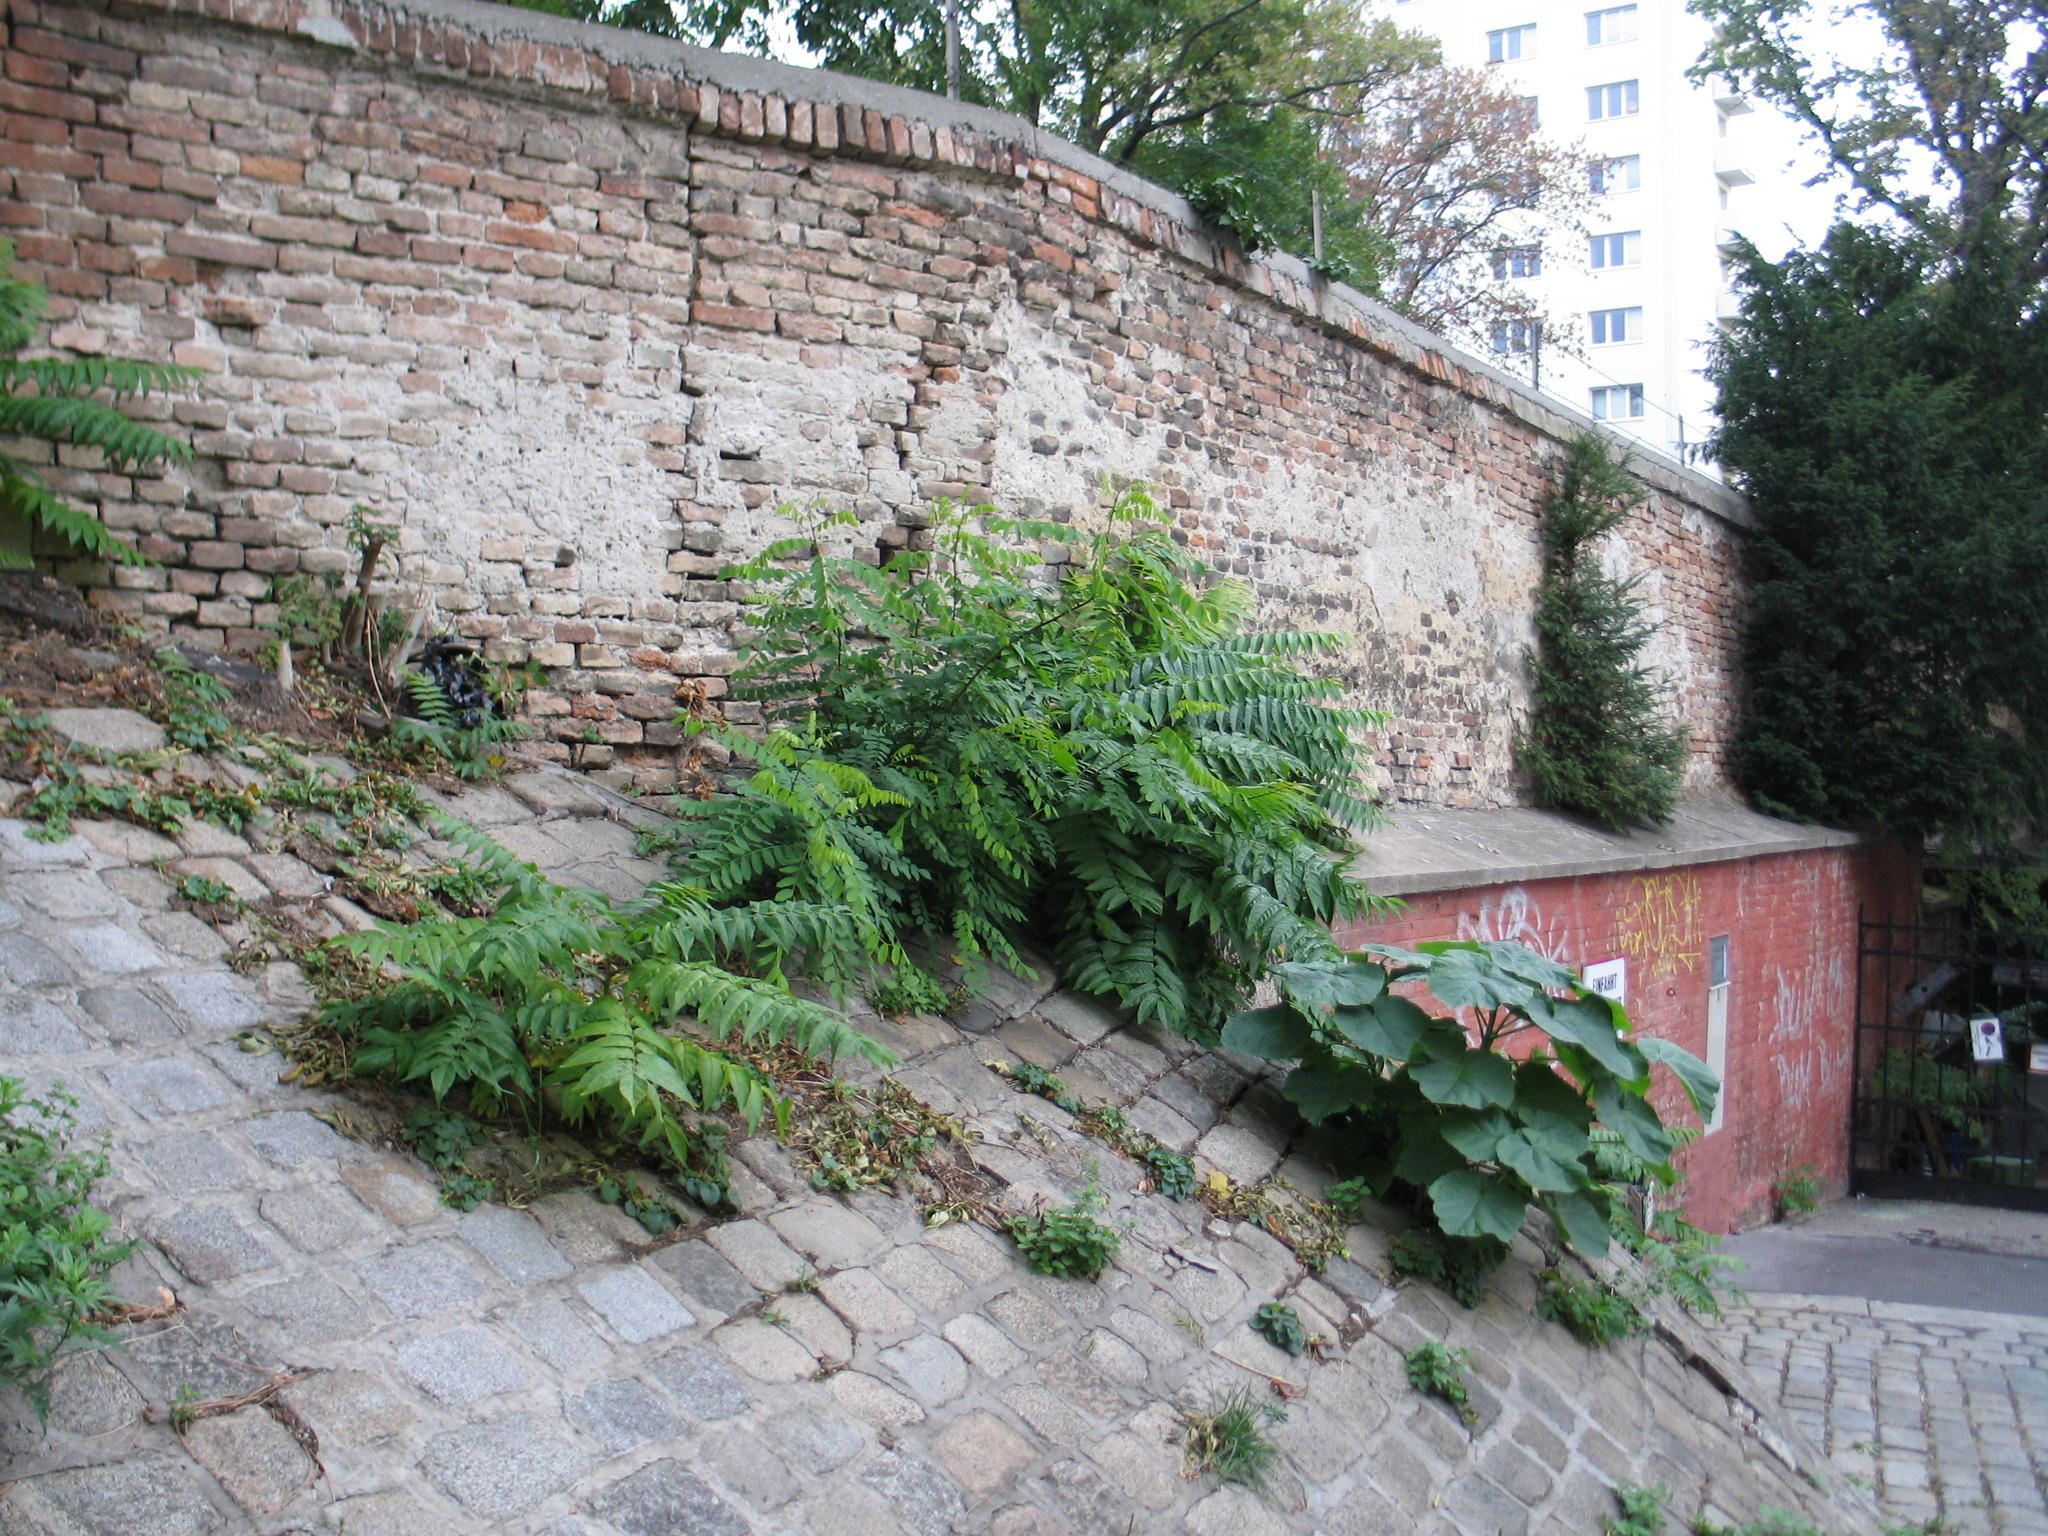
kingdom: Plantae
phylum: Tracheophyta
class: Magnoliopsida
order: Sapindales
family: Simaroubaceae
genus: Ailanthus
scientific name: Ailanthus altissima
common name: Tree-of-heaven
